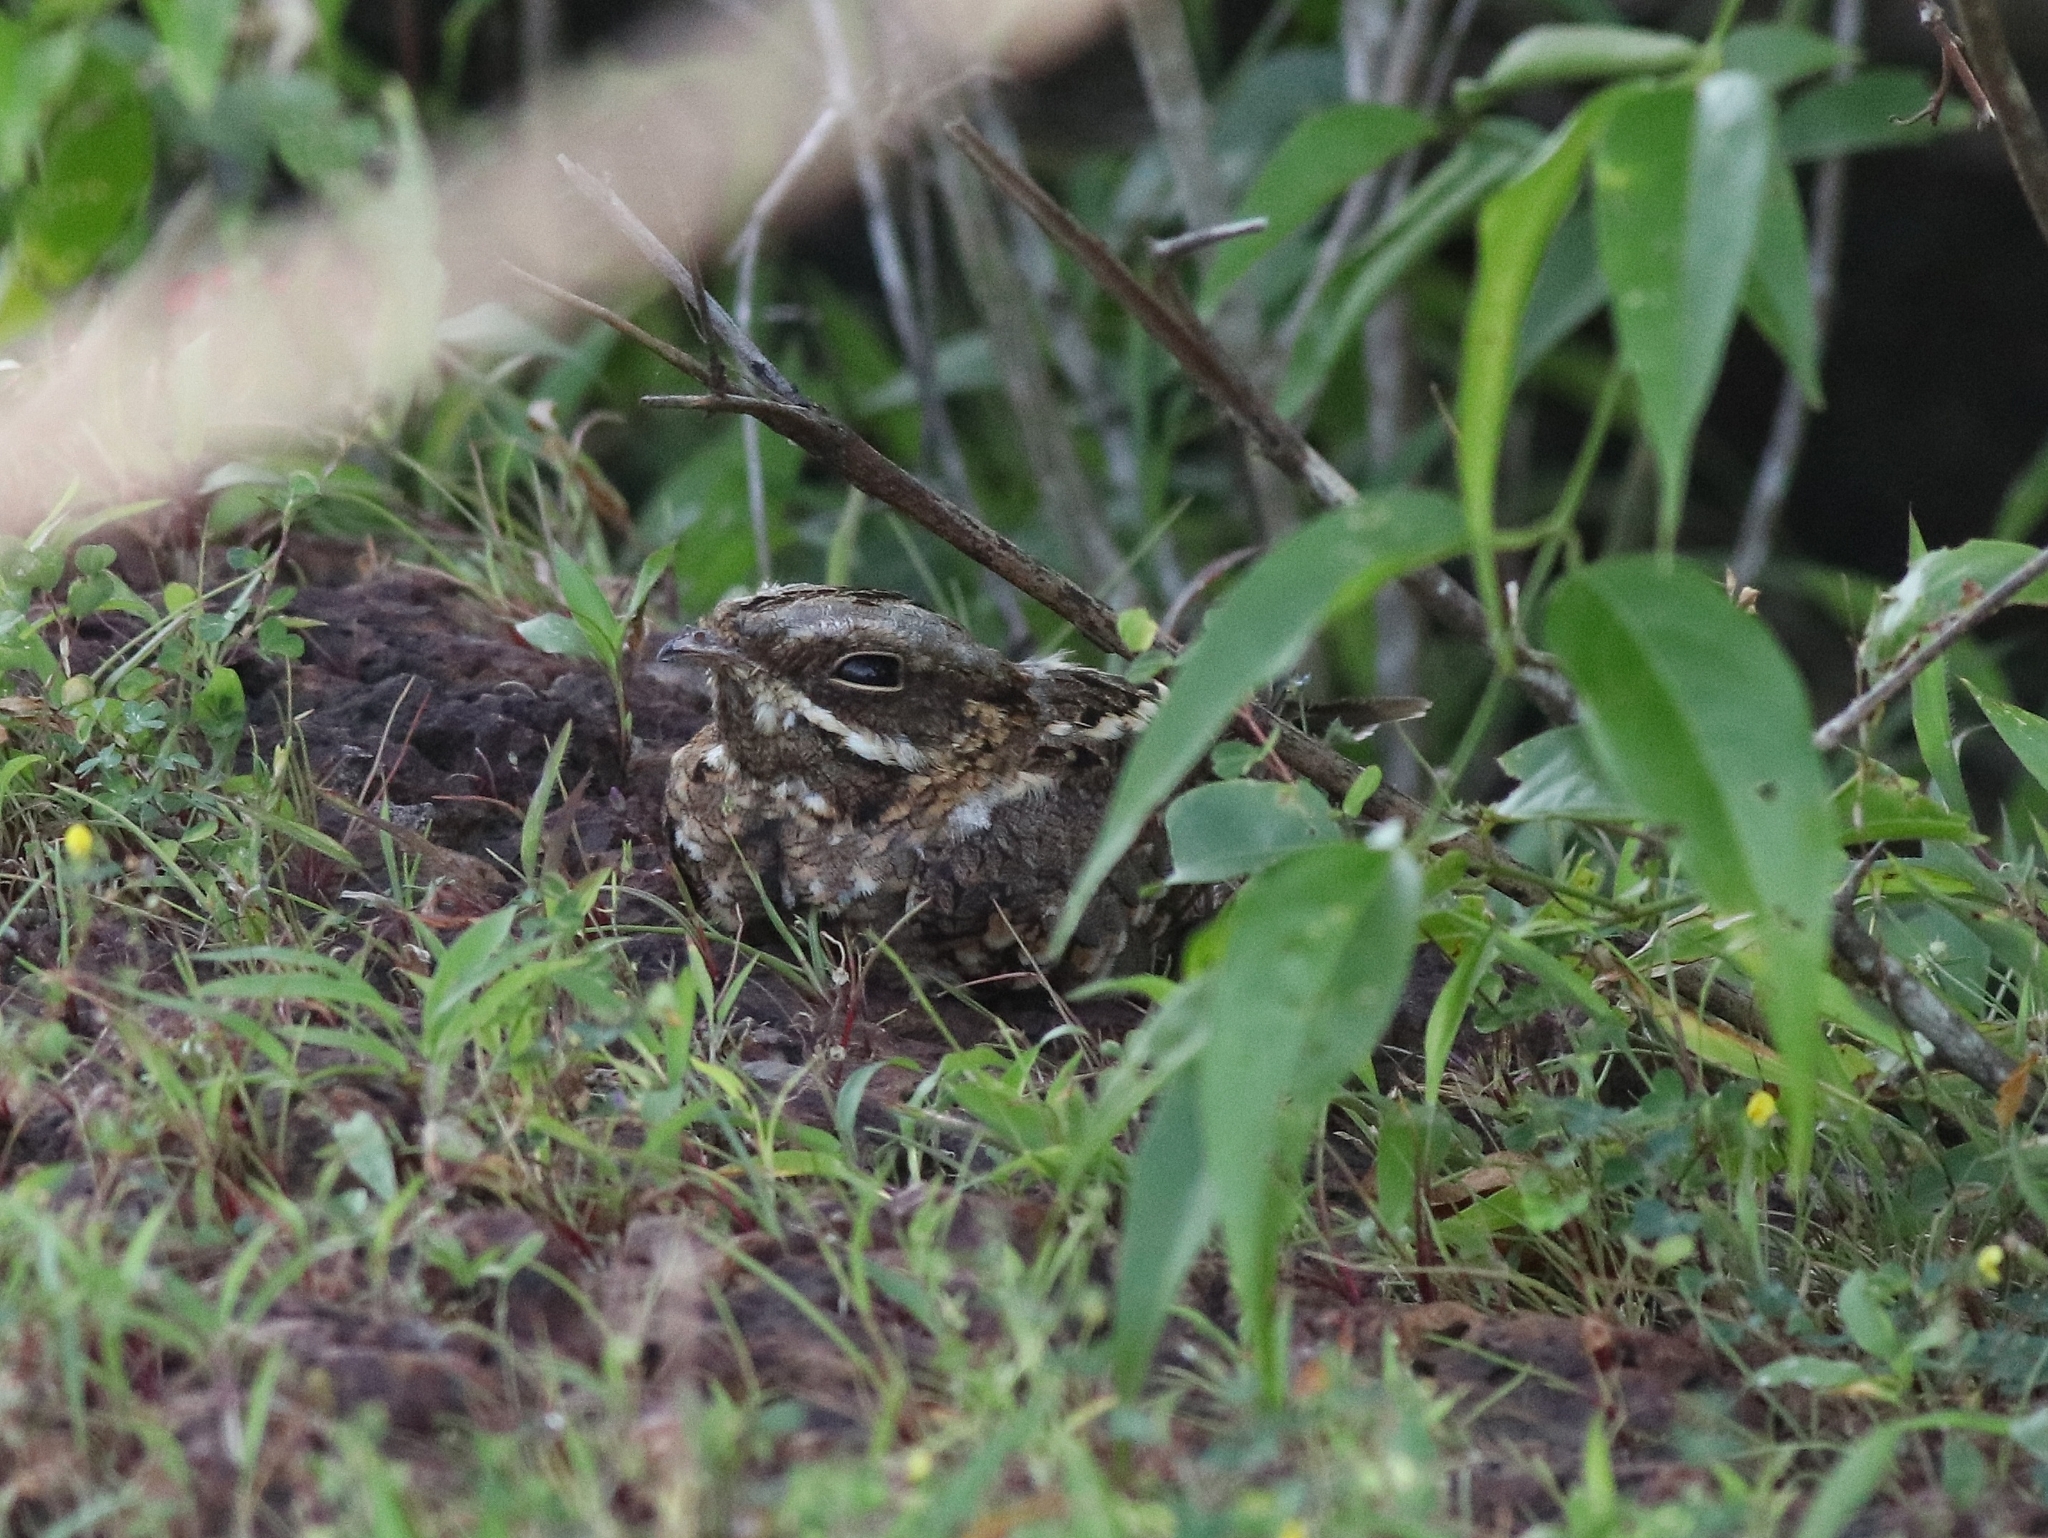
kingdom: Animalia
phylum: Chordata
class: Aves
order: Caprimulgiformes
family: Caprimulgidae
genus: Caprimulgus
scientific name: Caprimulgus asiaticus
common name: Indian nightjar
